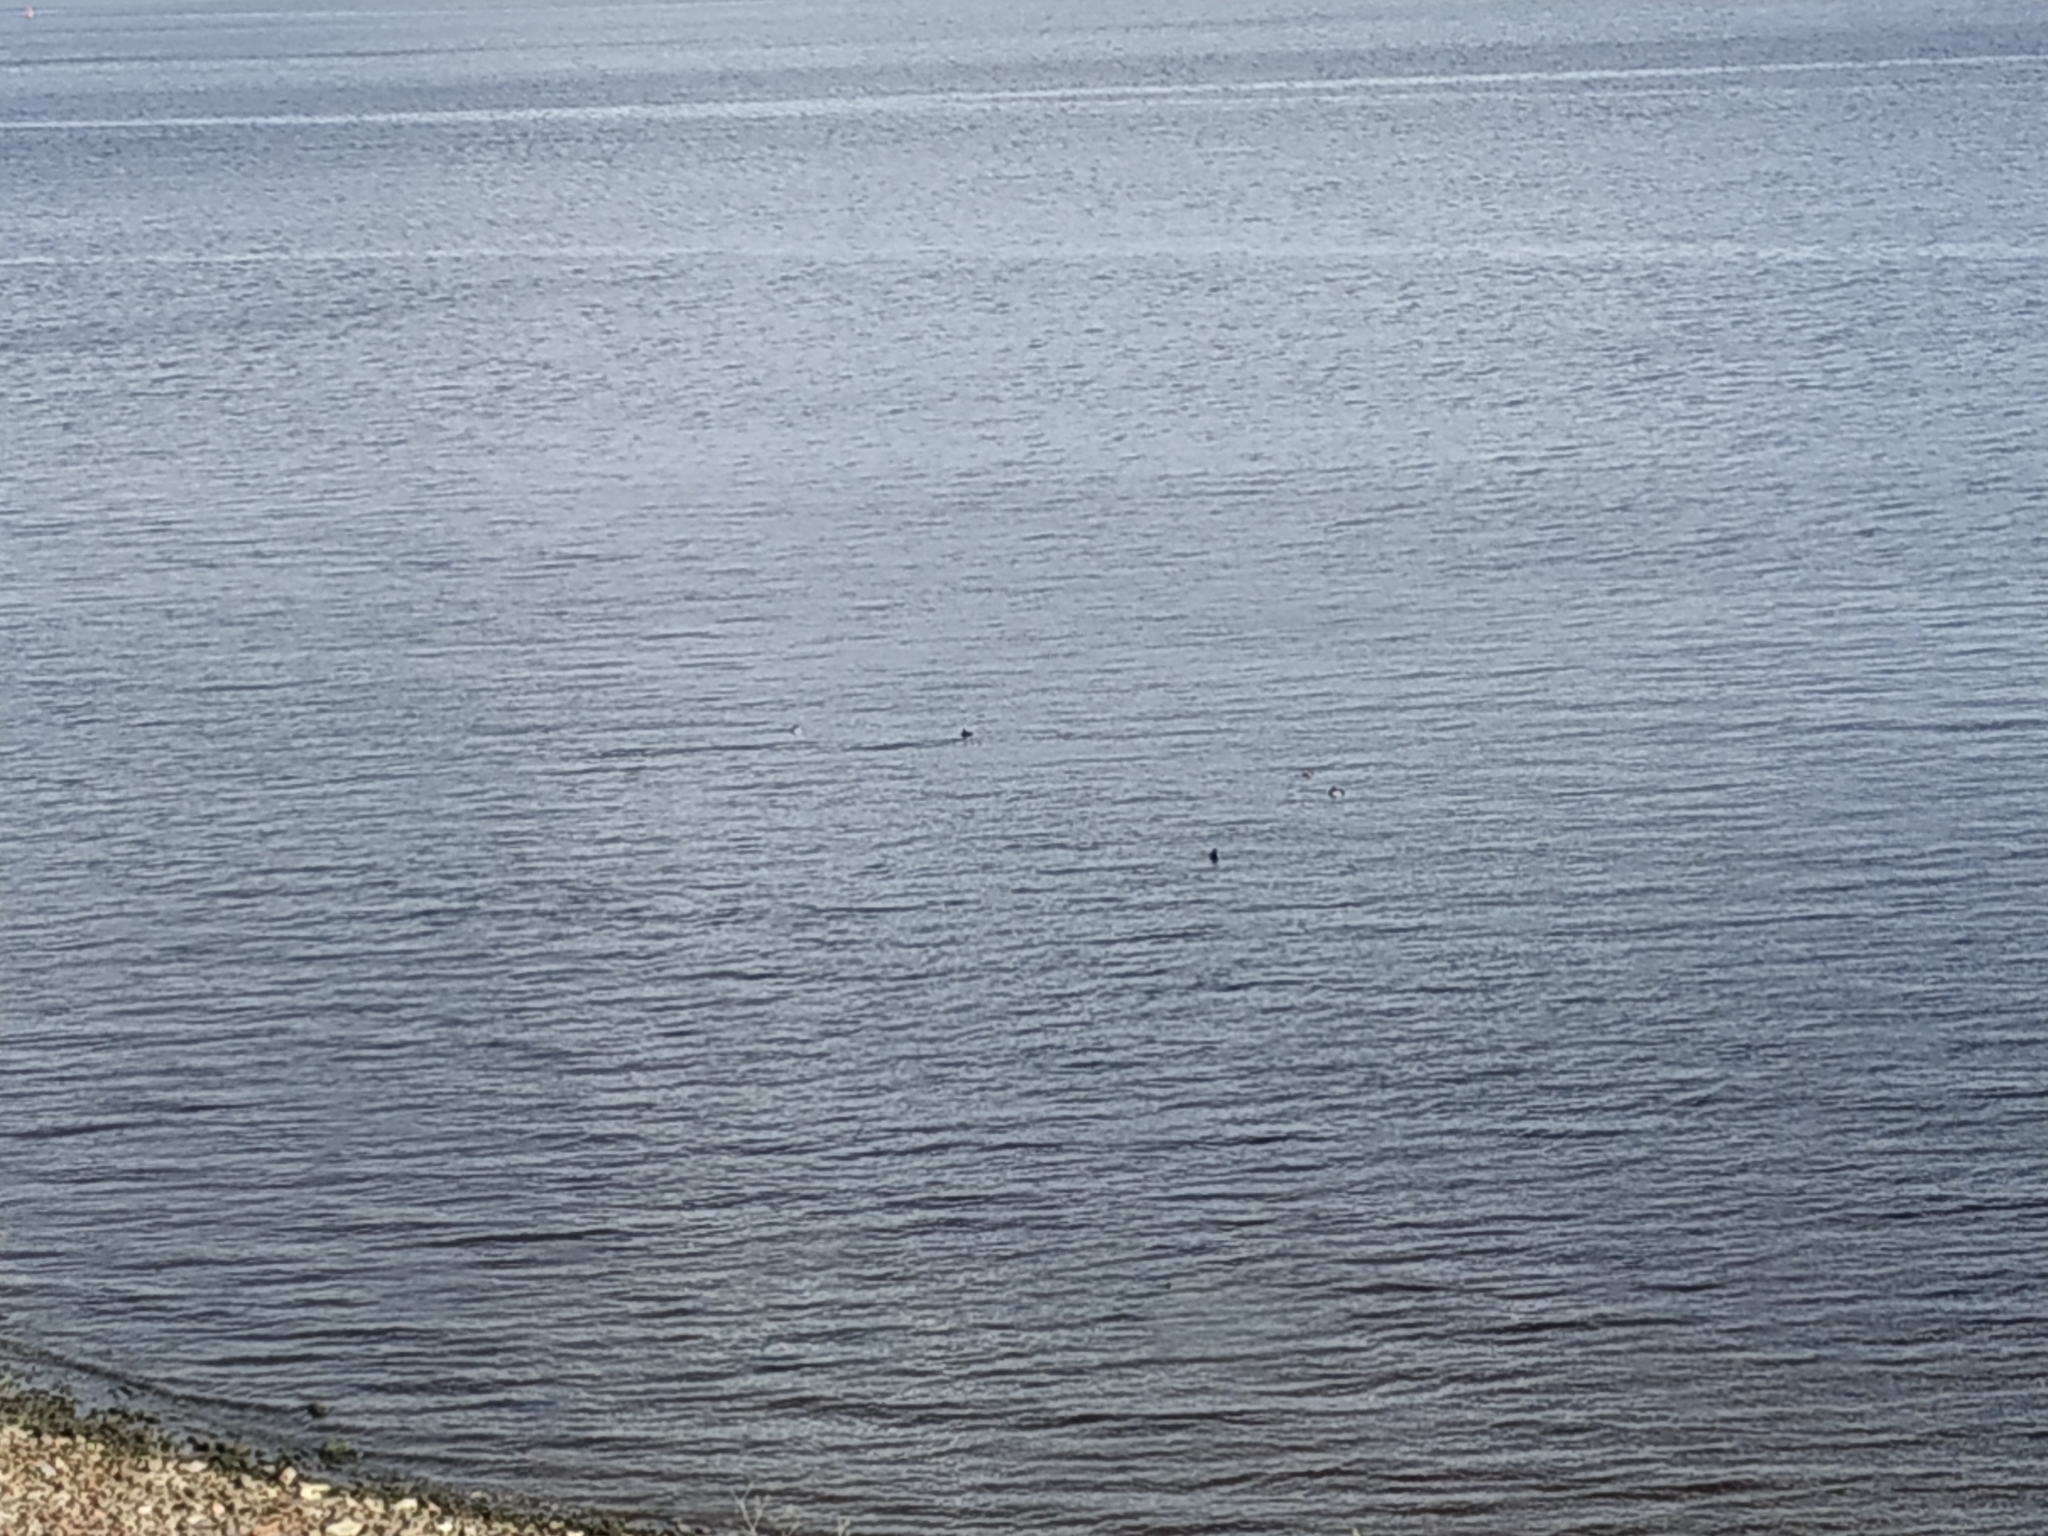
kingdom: Animalia
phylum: Chordata
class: Aves
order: Anseriformes
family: Anatidae
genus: Aythya
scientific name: Aythya fuligula
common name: Tufted duck
